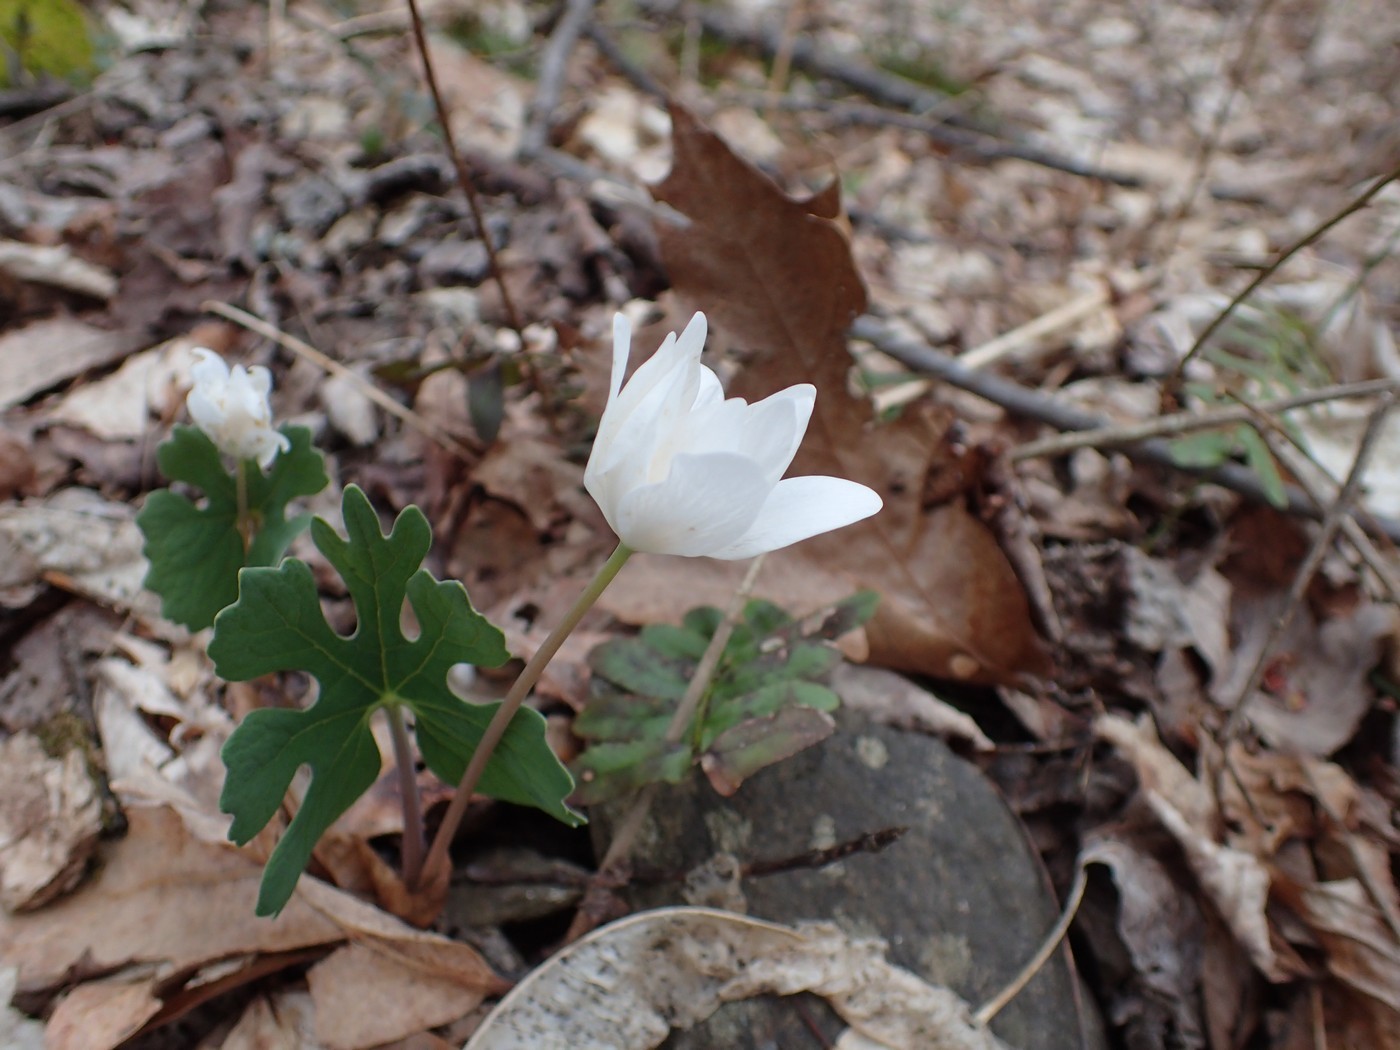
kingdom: Plantae
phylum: Tracheophyta
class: Magnoliopsida
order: Ranunculales
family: Papaveraceae
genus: Sanguinaria
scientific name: Sanguinaria canadensis
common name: Bloodroot
